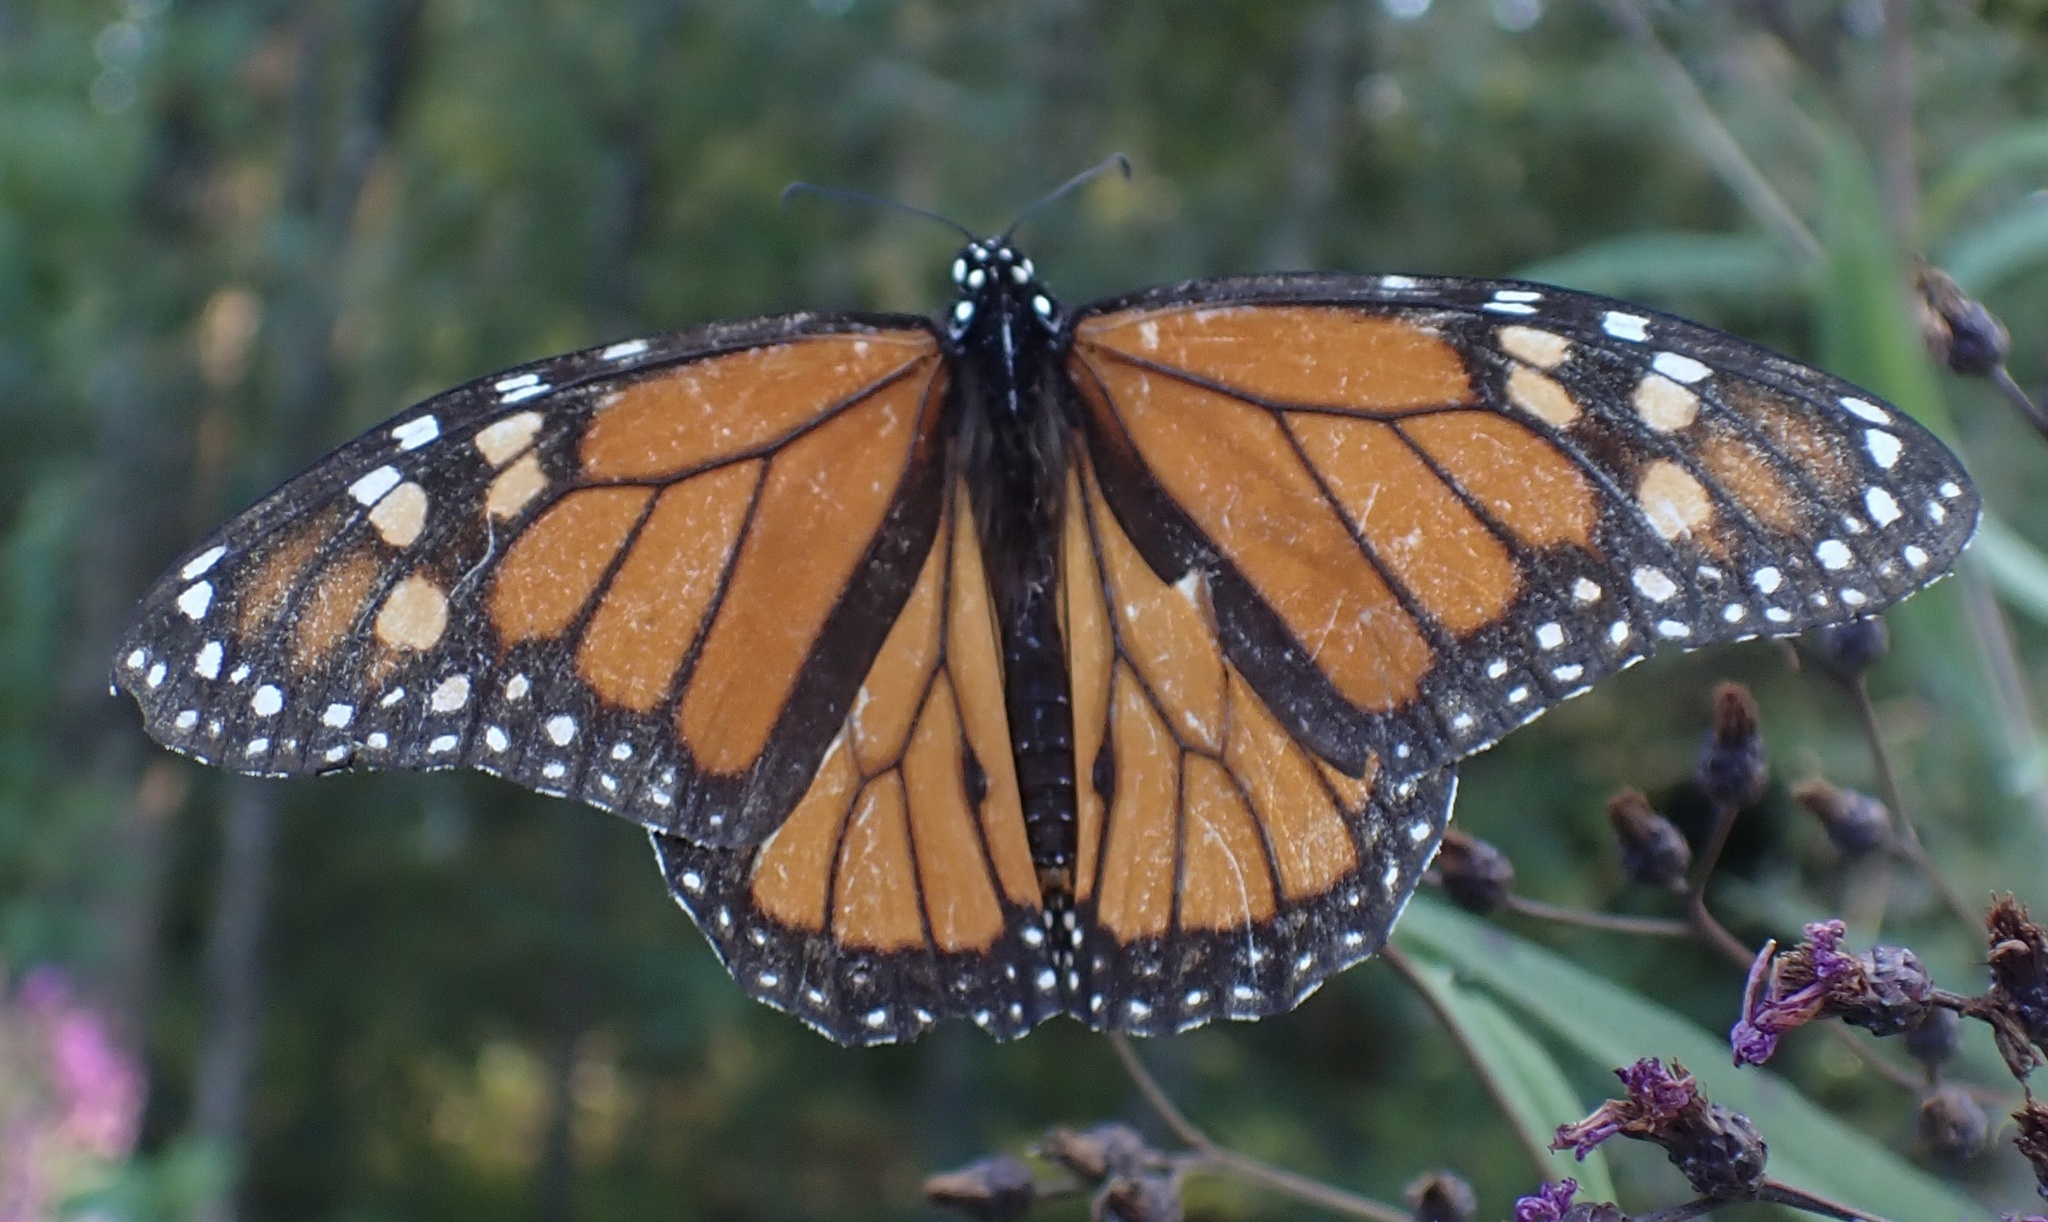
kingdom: Animalia
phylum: Arthropoda
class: Insecta
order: Lepidoptera
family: Nymphalidae
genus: Danaus
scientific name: Danaus plexippus
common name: Monarch
